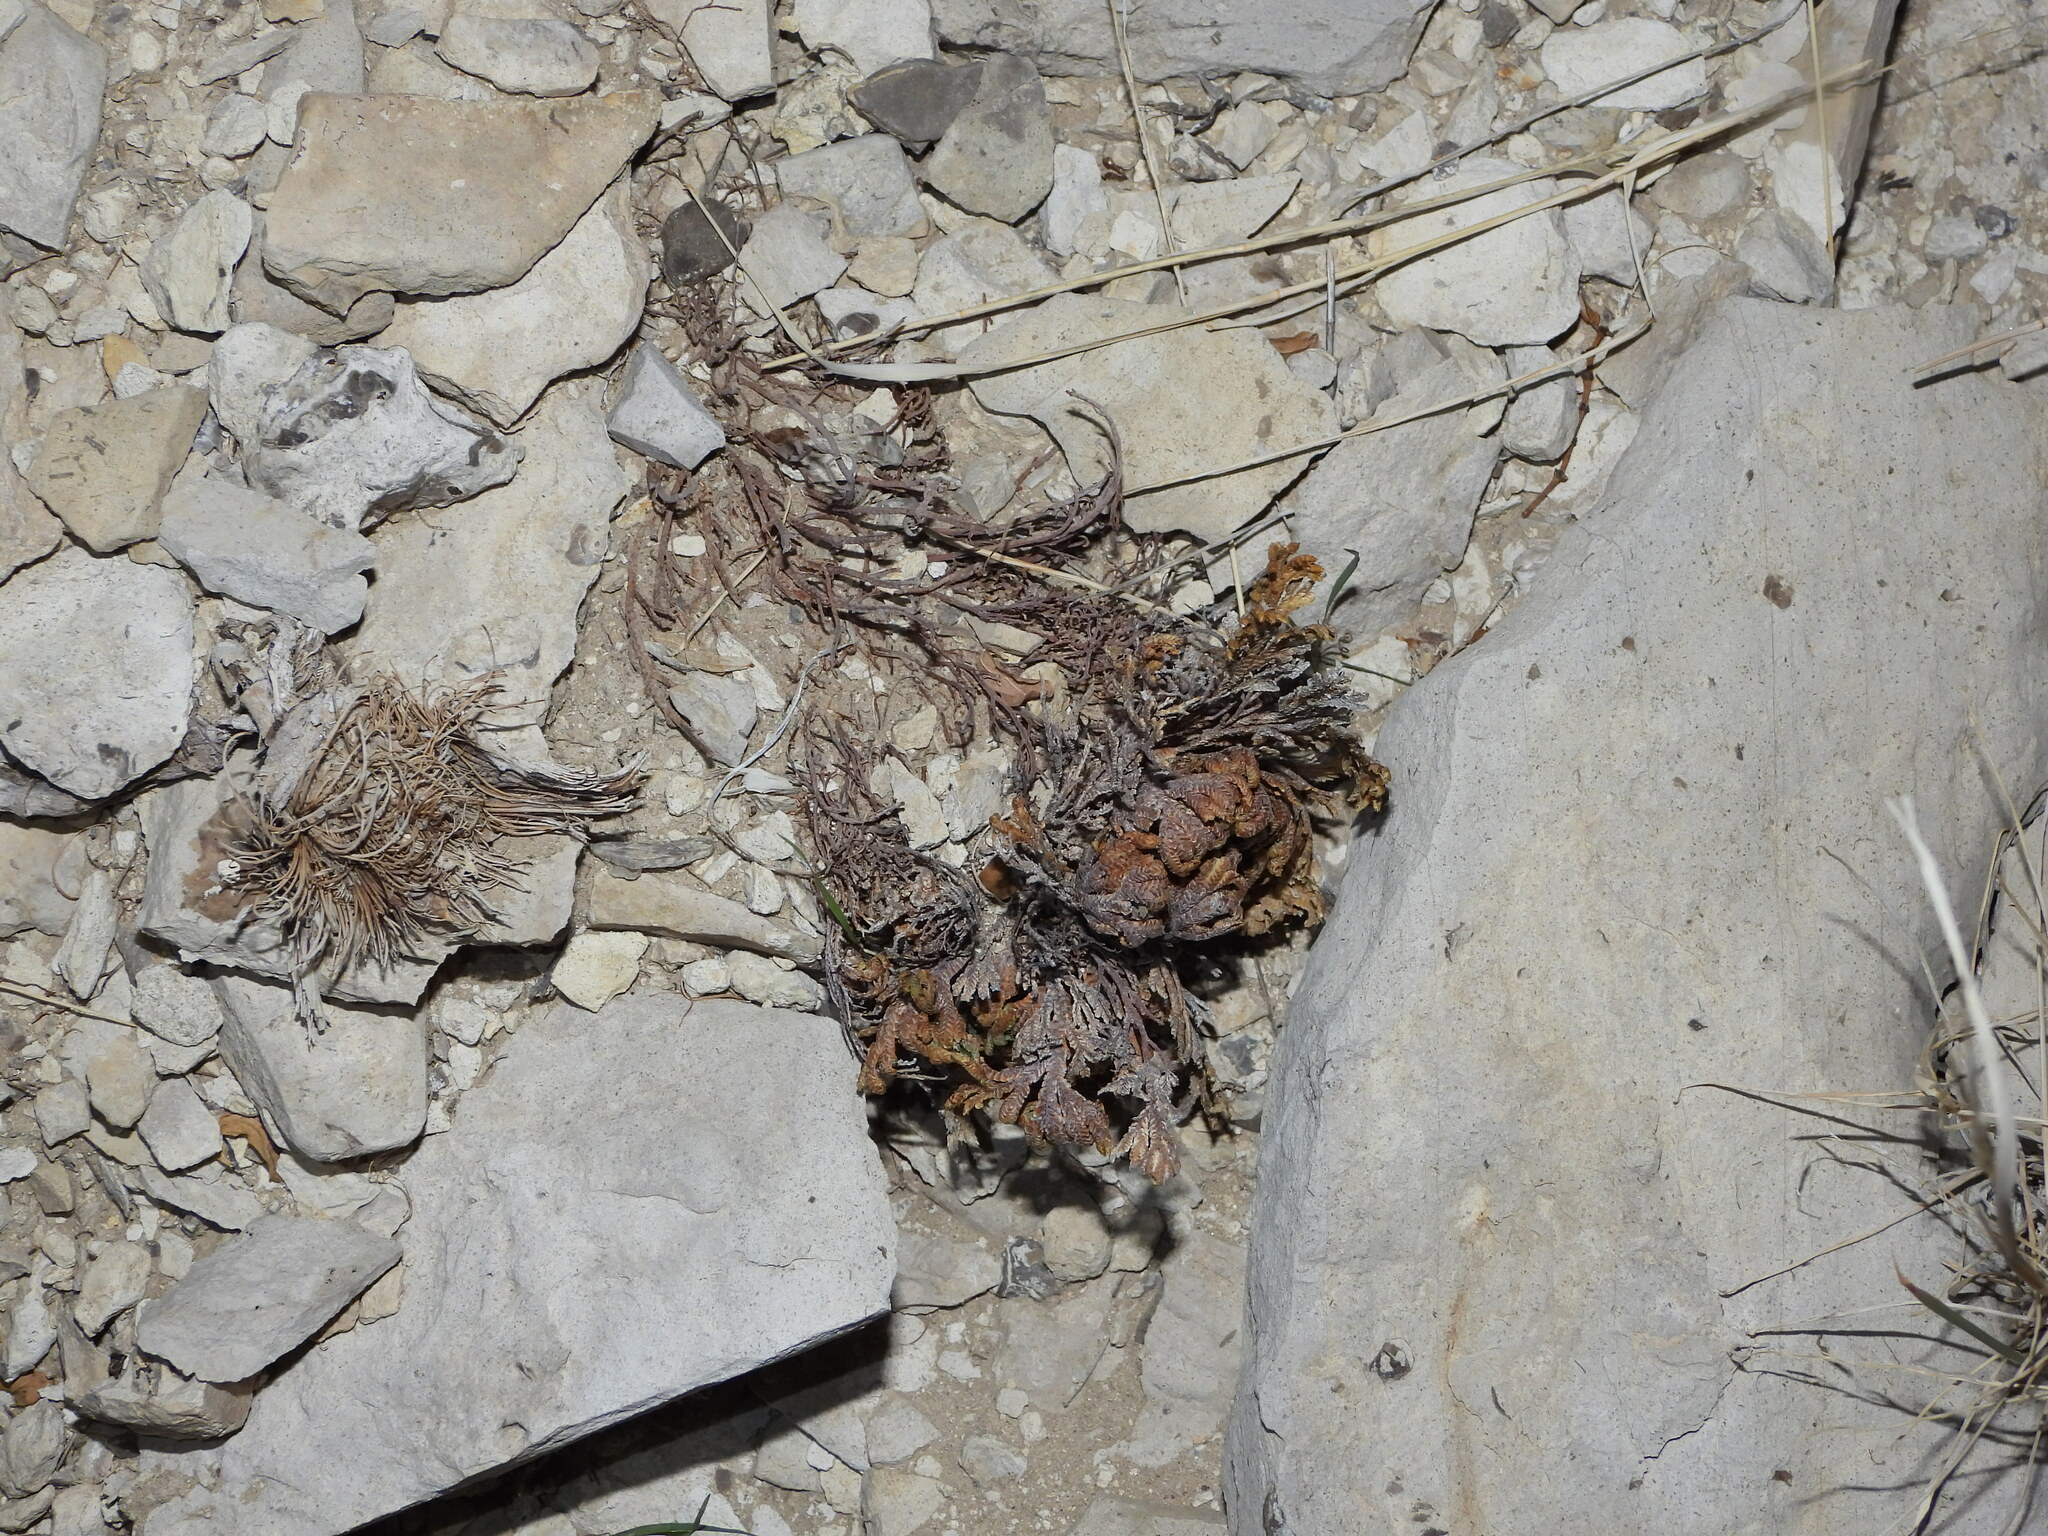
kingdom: Plantae
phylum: Tracheophyta
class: Lycopodiopsida
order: Selaginellales
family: Selaginellaceae
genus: Selaginella
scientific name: Selaginella lepidophylla
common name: Rose-of-jericho
